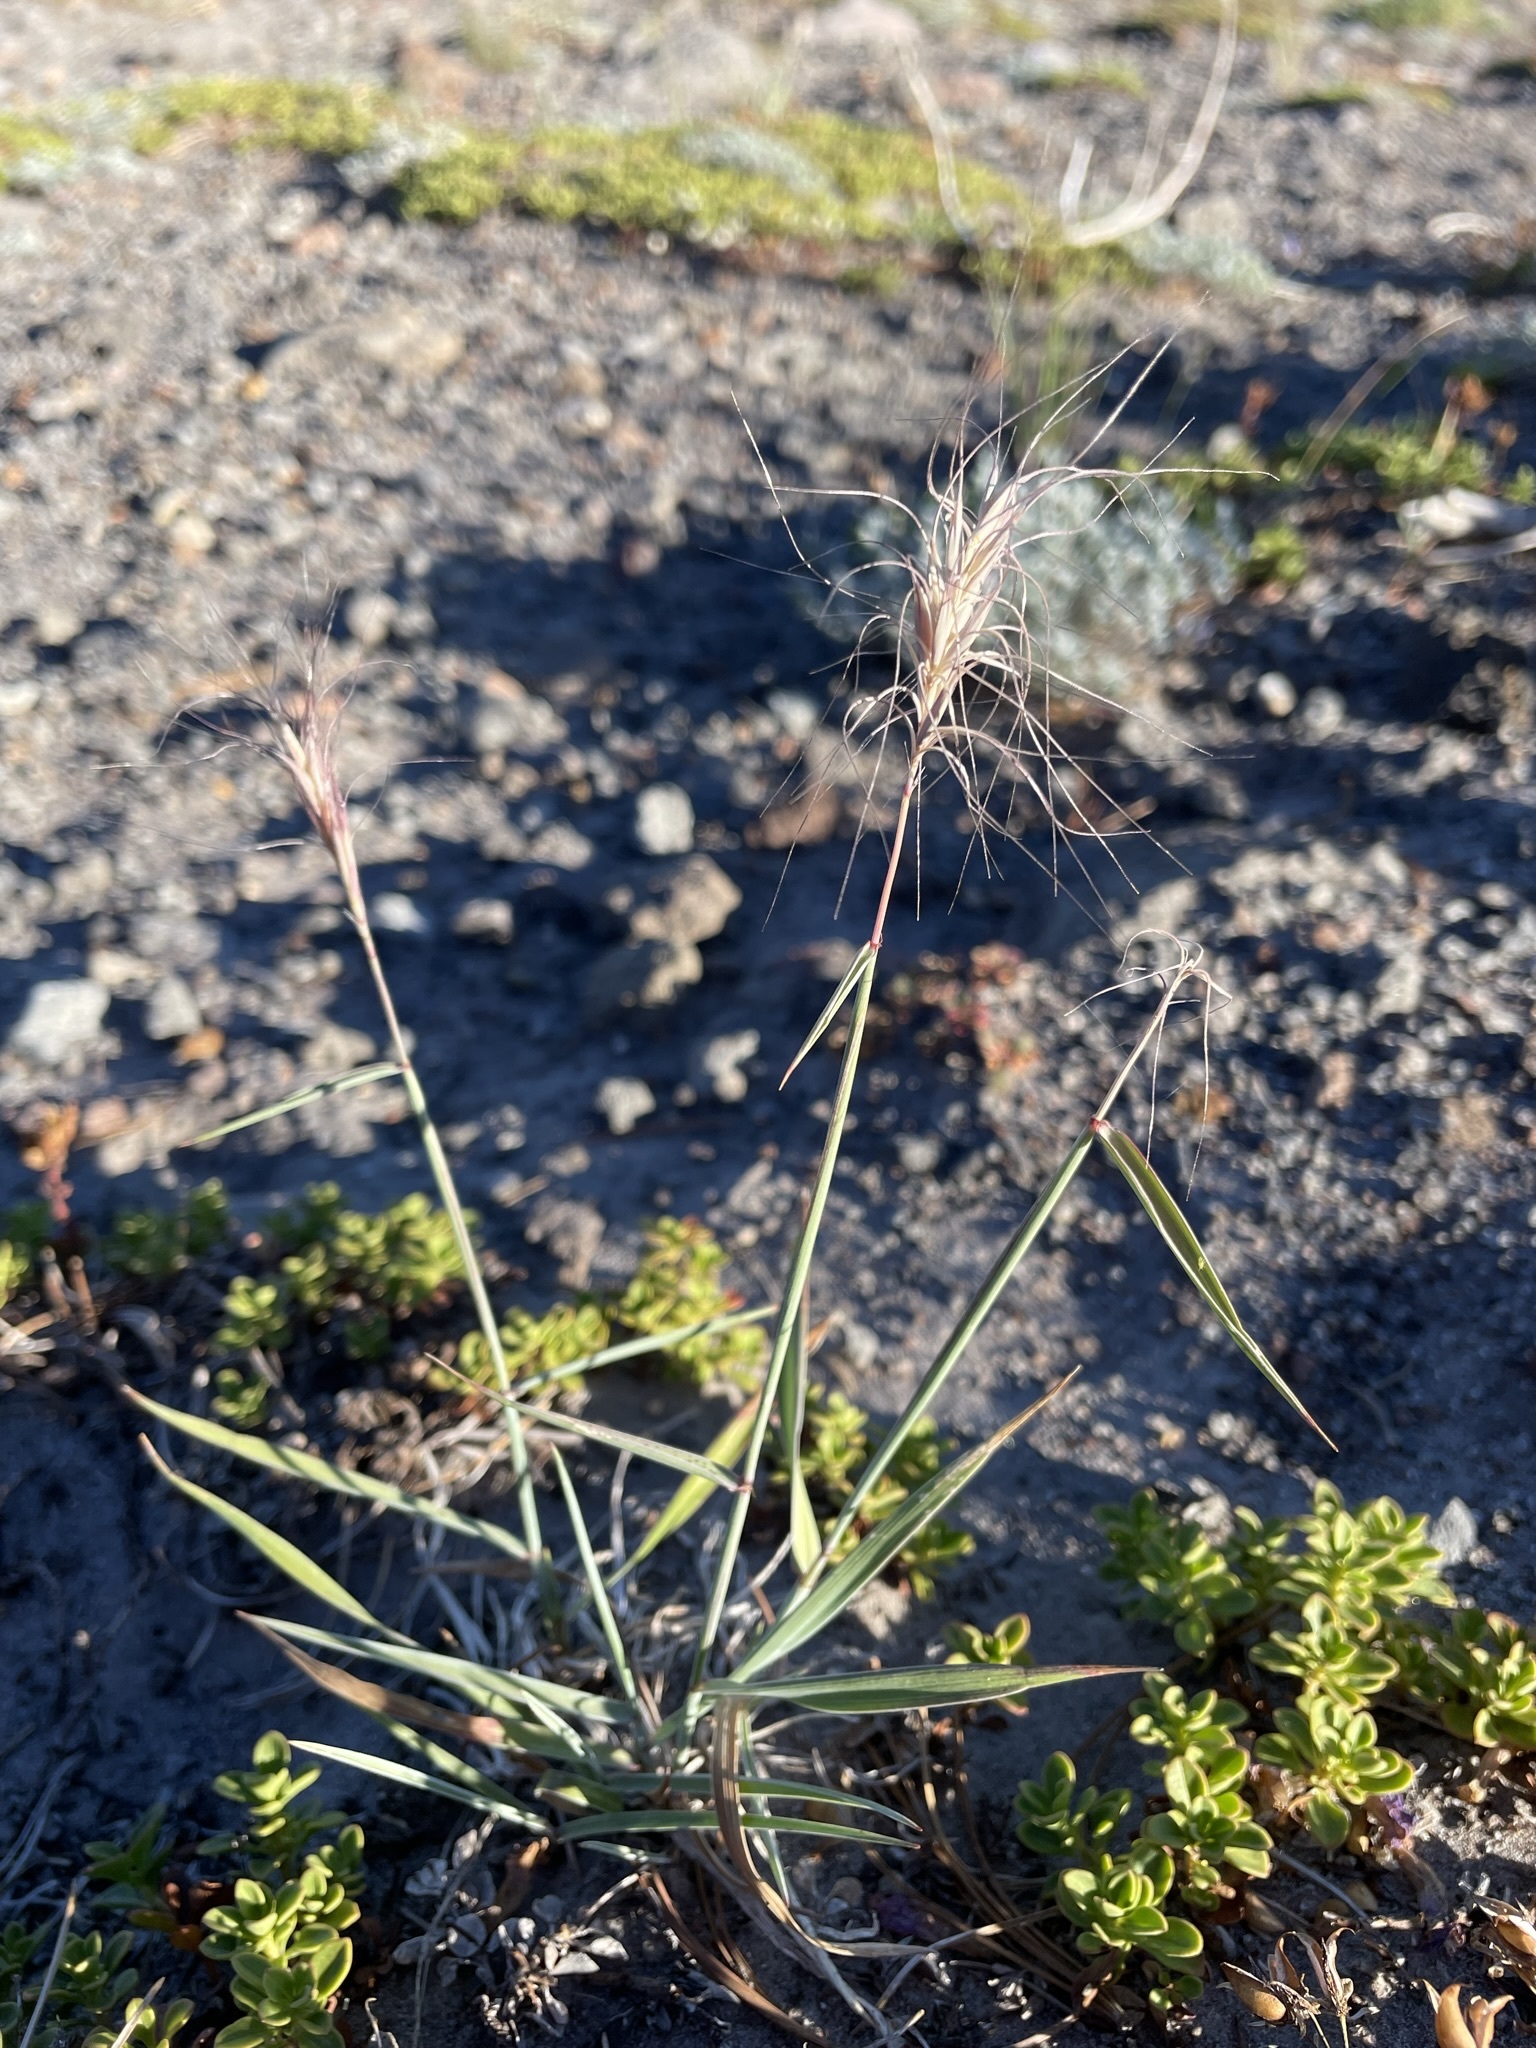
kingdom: Plantae
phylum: Tracheophyta
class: Liliopsida
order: Poales
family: Poaceae
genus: Elymus
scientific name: Elymus elymoides
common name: Bottlebrush squirreltail
